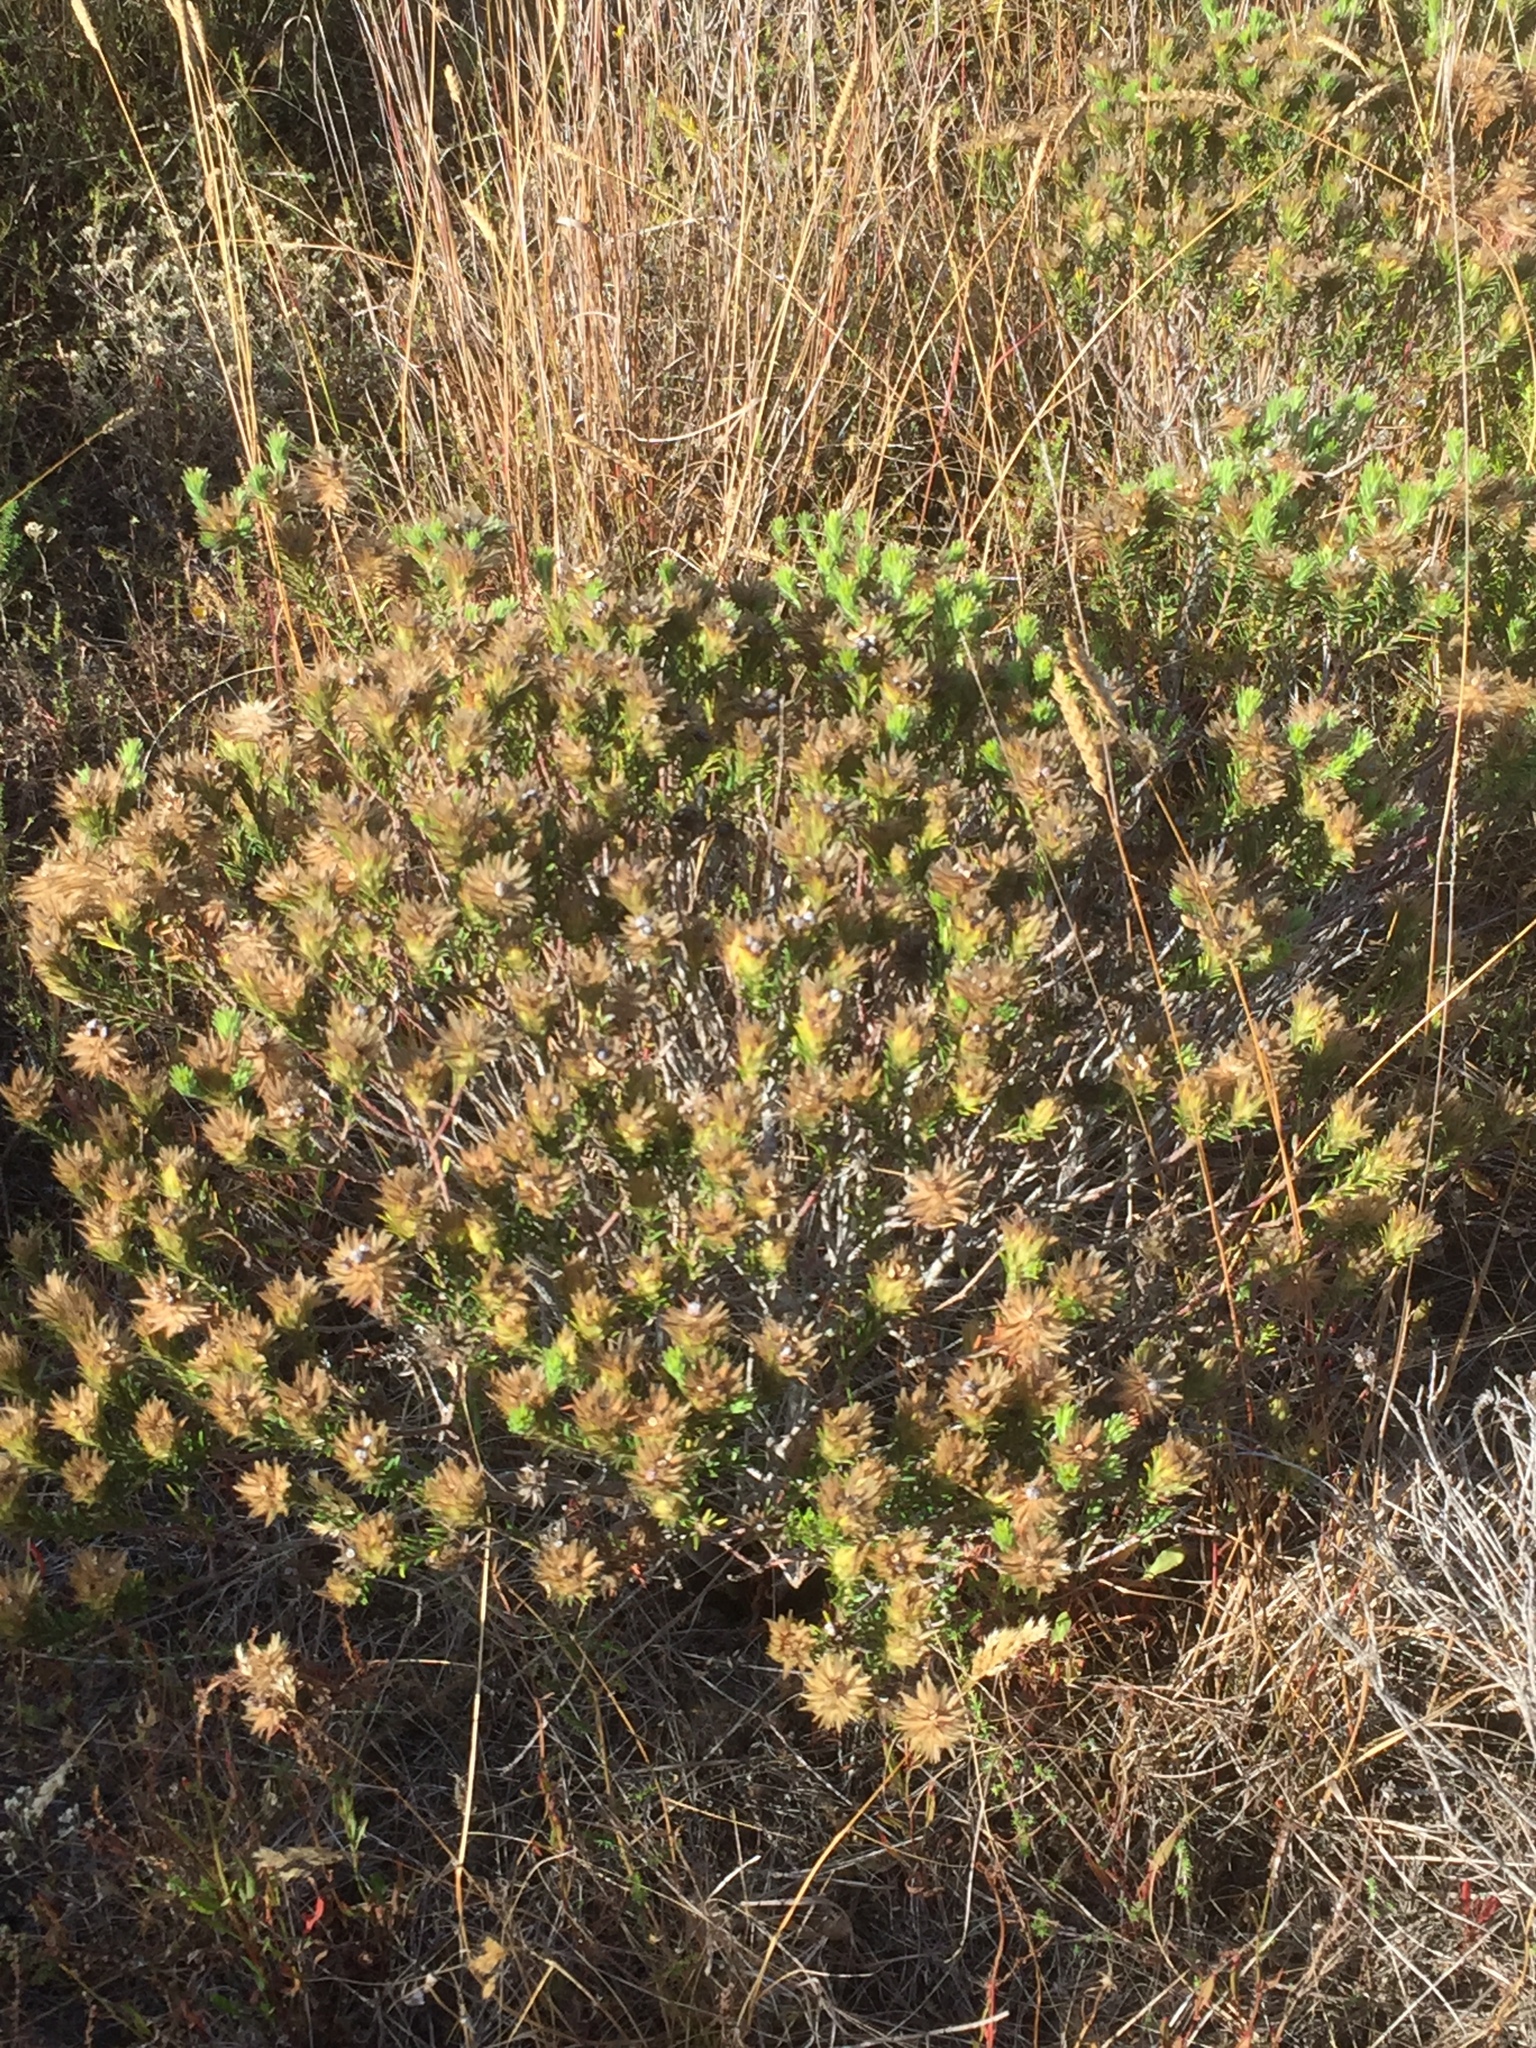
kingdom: Plantae
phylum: Tracheophyta
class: Magnoliopsida
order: Rosales
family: Rhamnaceae
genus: Phylica
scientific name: Phylica pubescens
